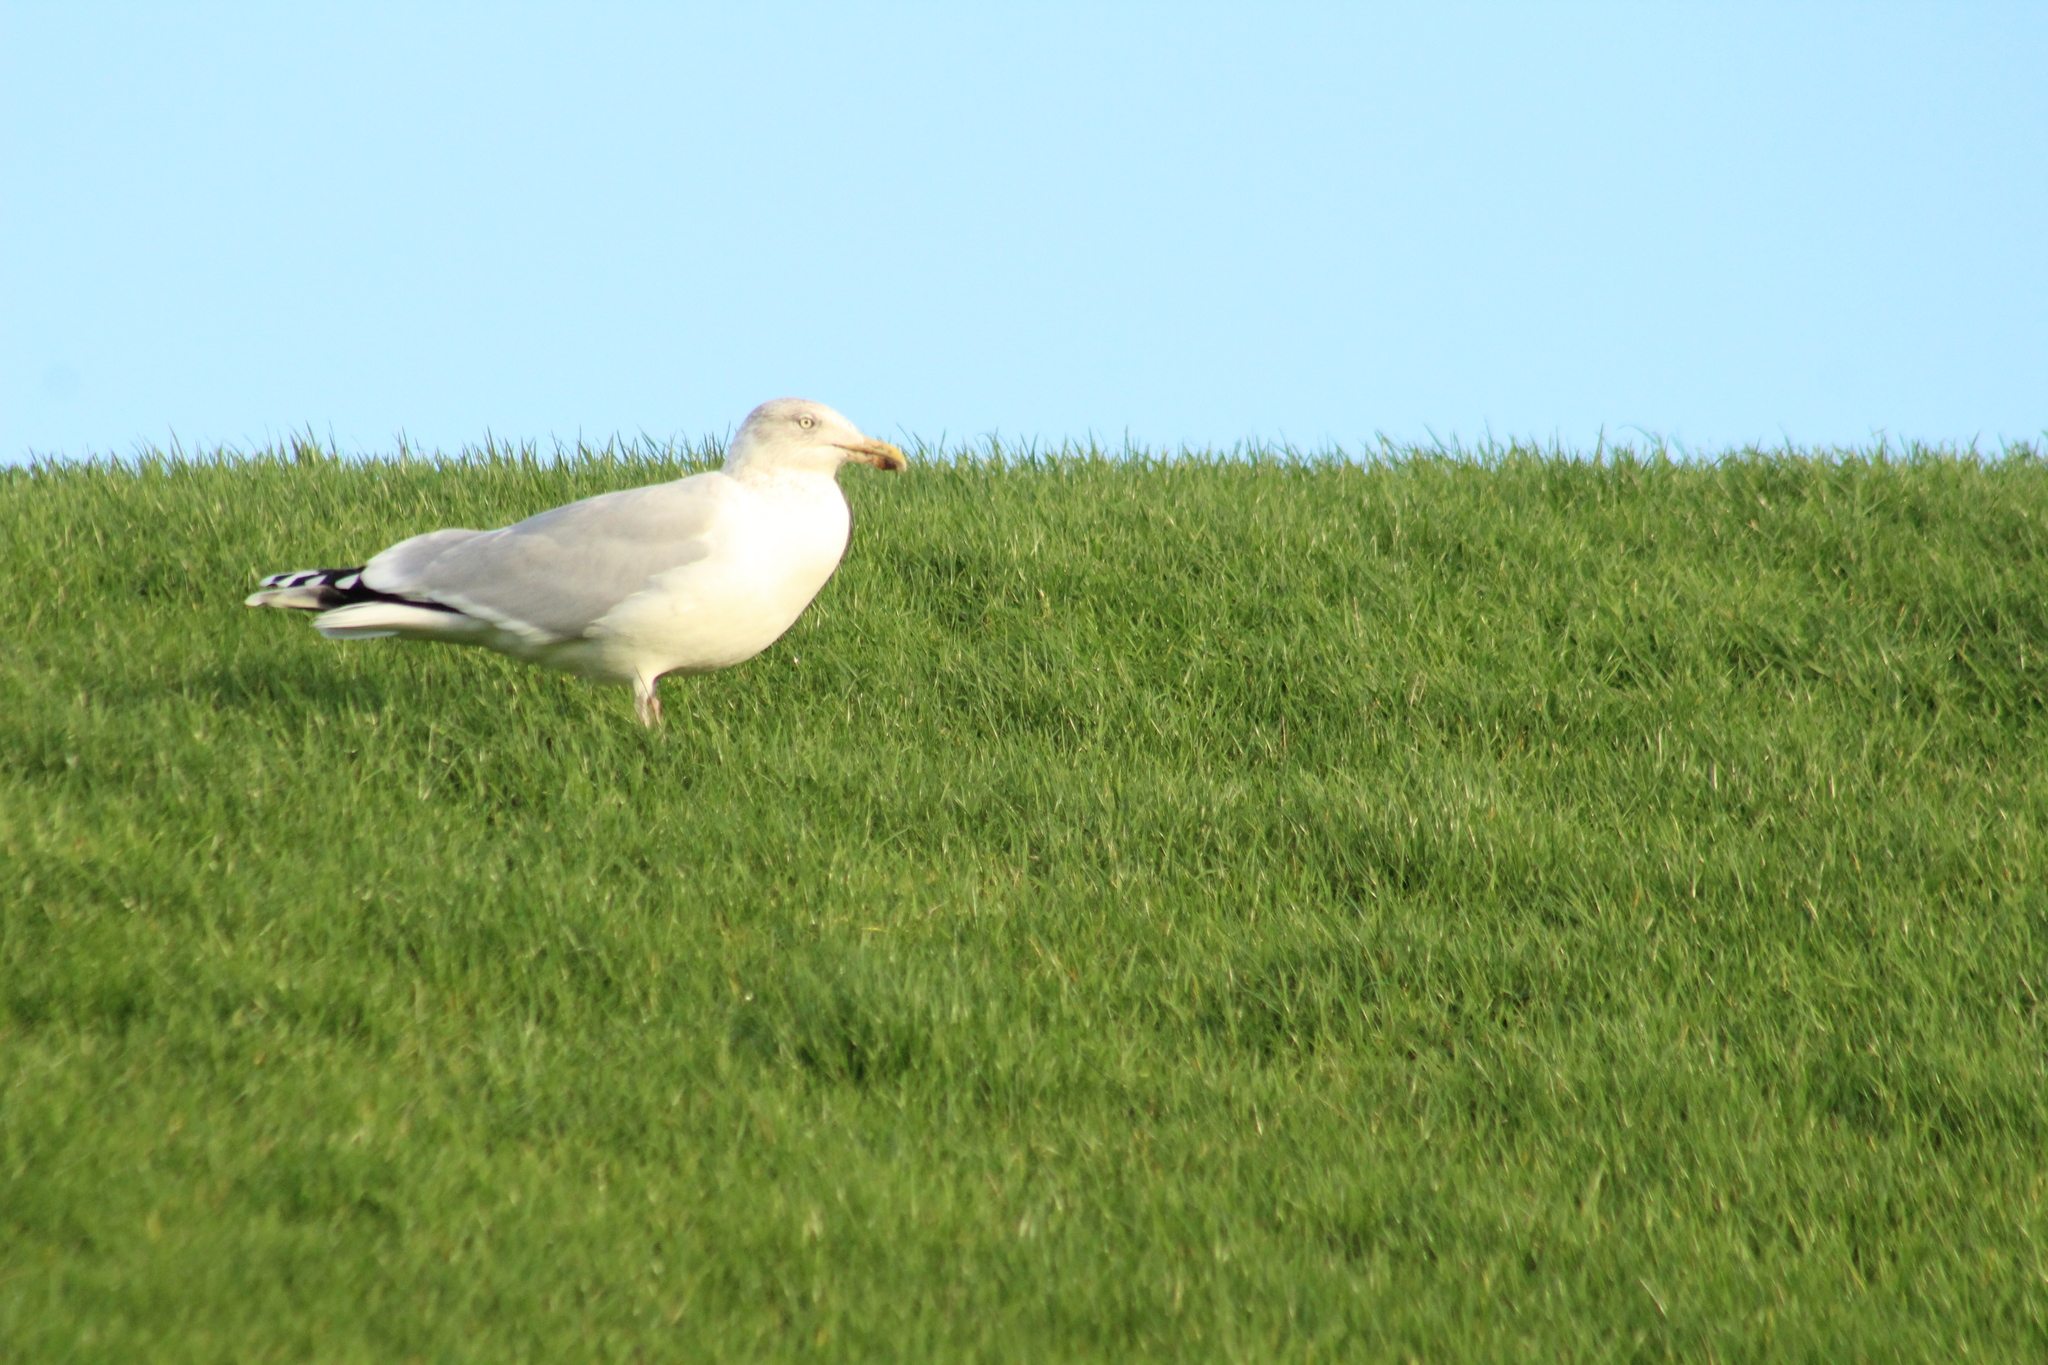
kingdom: Animalia
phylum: Chordata
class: Aves
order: Charadriiformes
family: Laridae
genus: Larus
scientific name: Larus argentatus
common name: Herring gull
